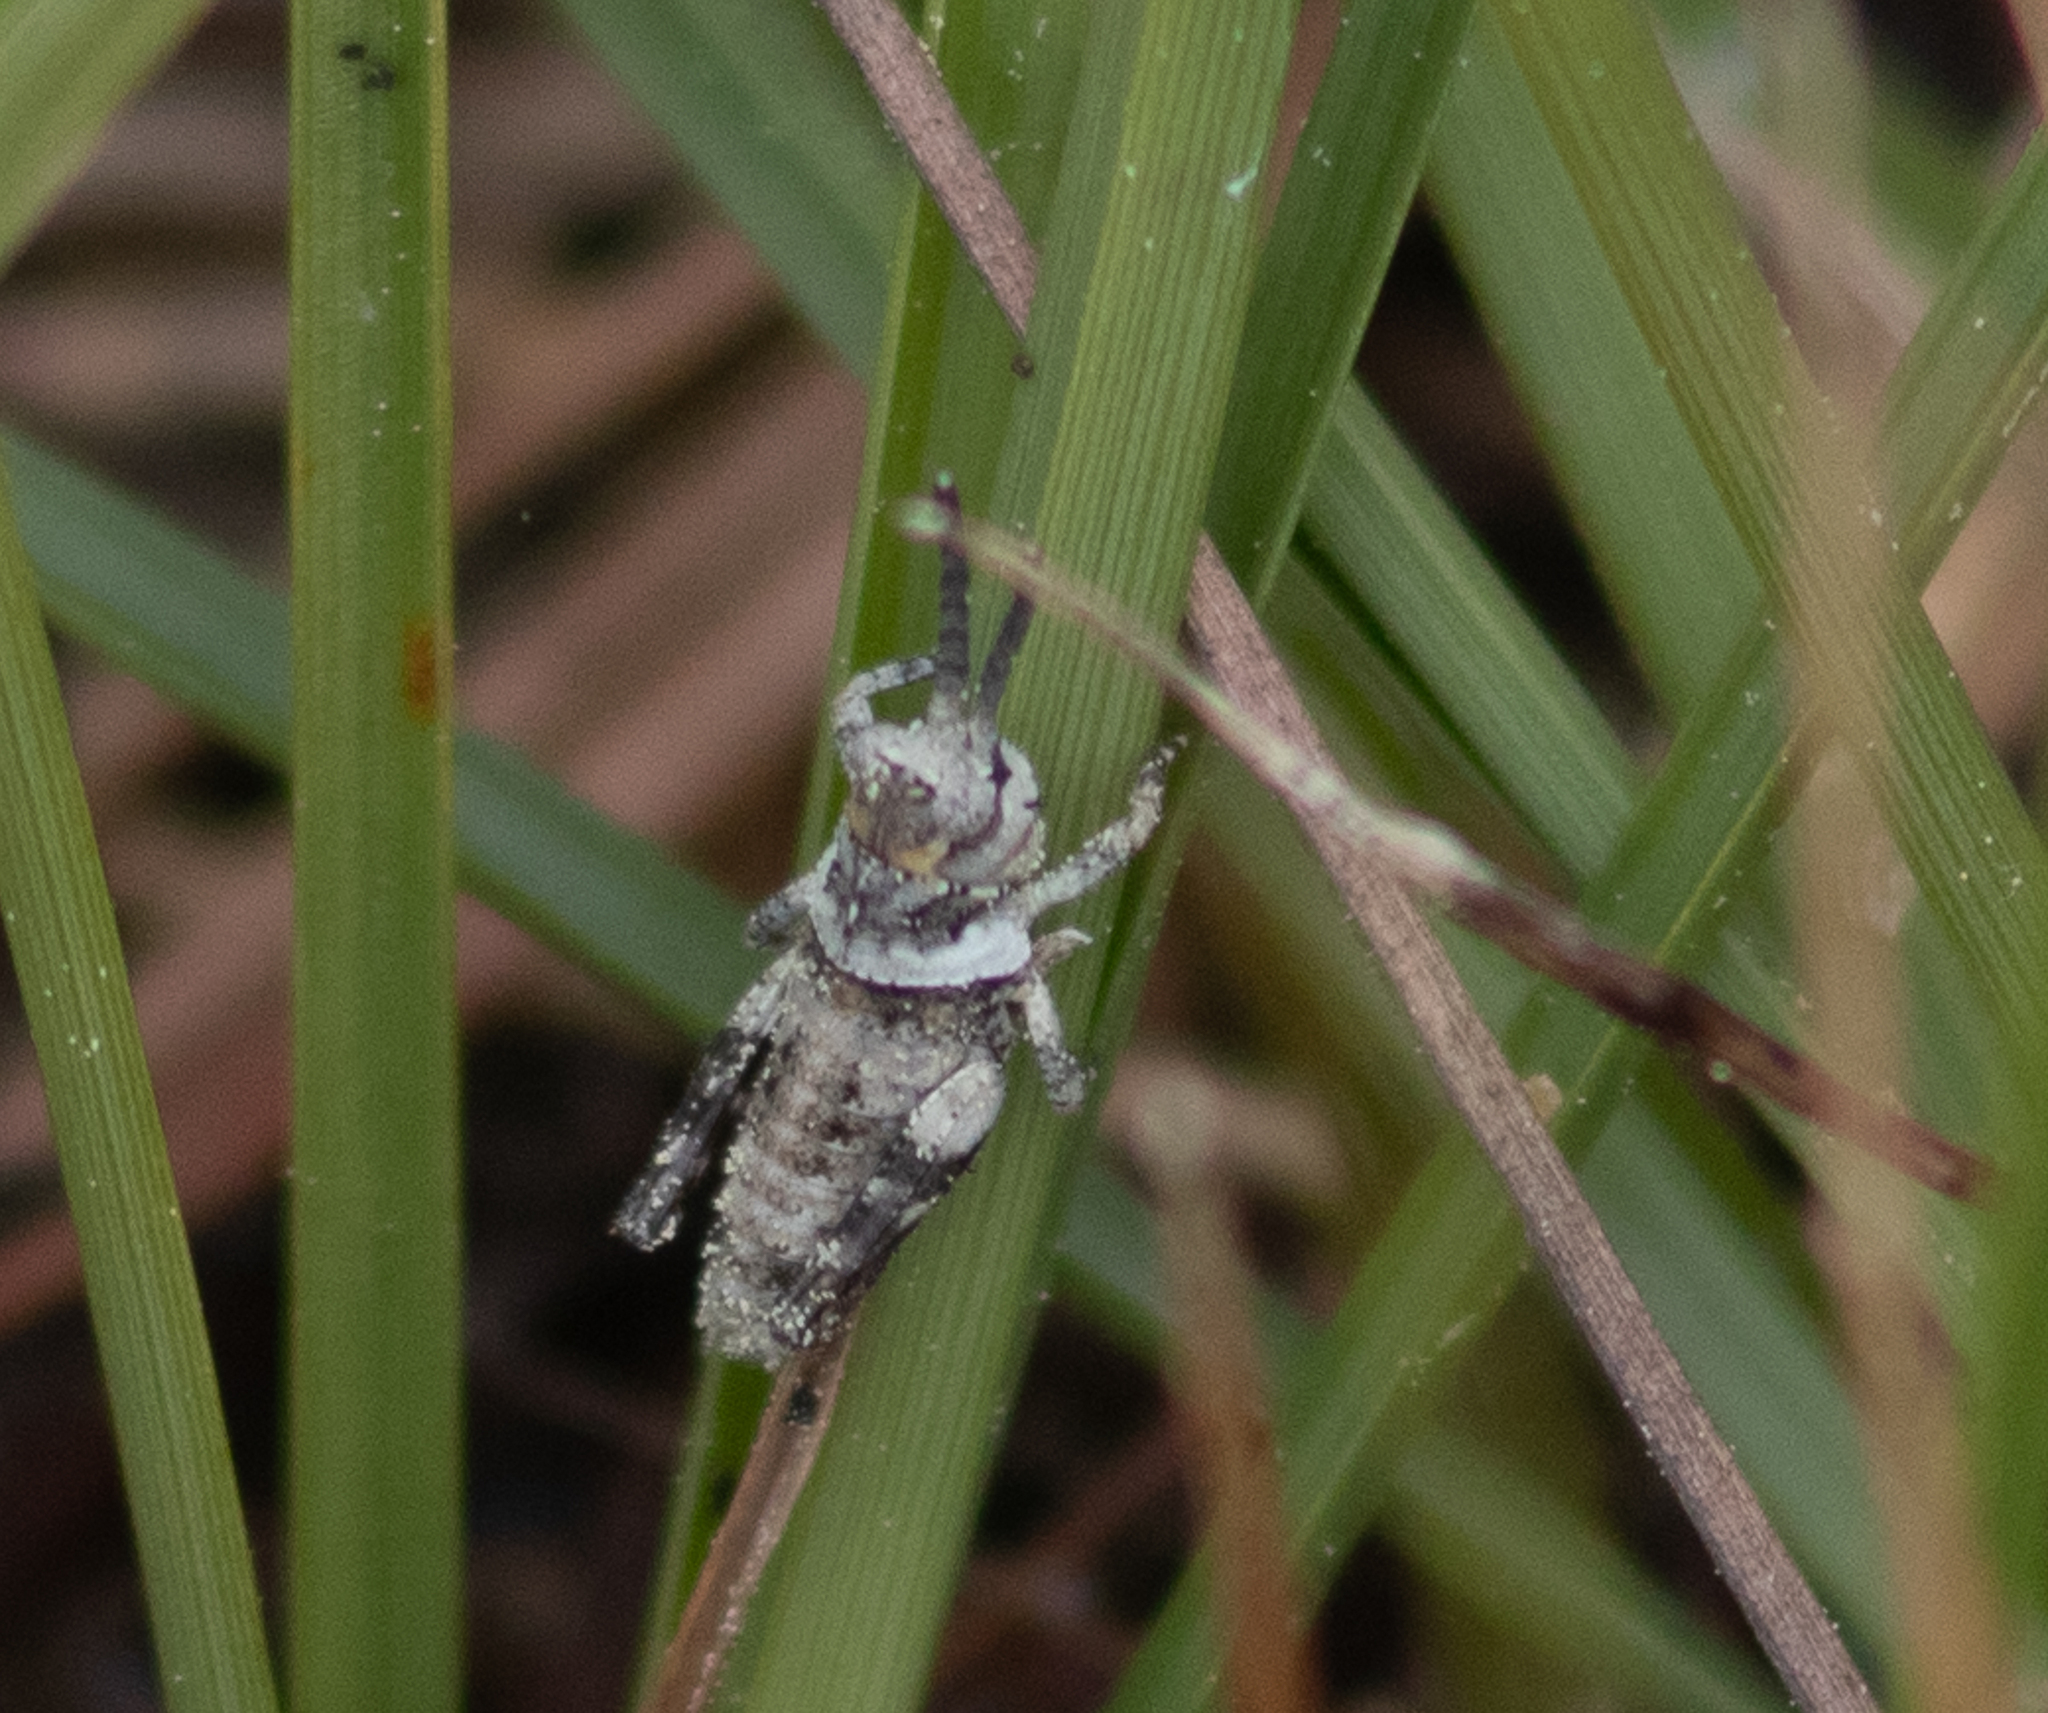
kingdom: Animalia
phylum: Arthropoda
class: Insecta
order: Orthoptera
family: Acrididae
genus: Psinidia
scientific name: Psinidia fenestralis
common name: Long-horned locust
